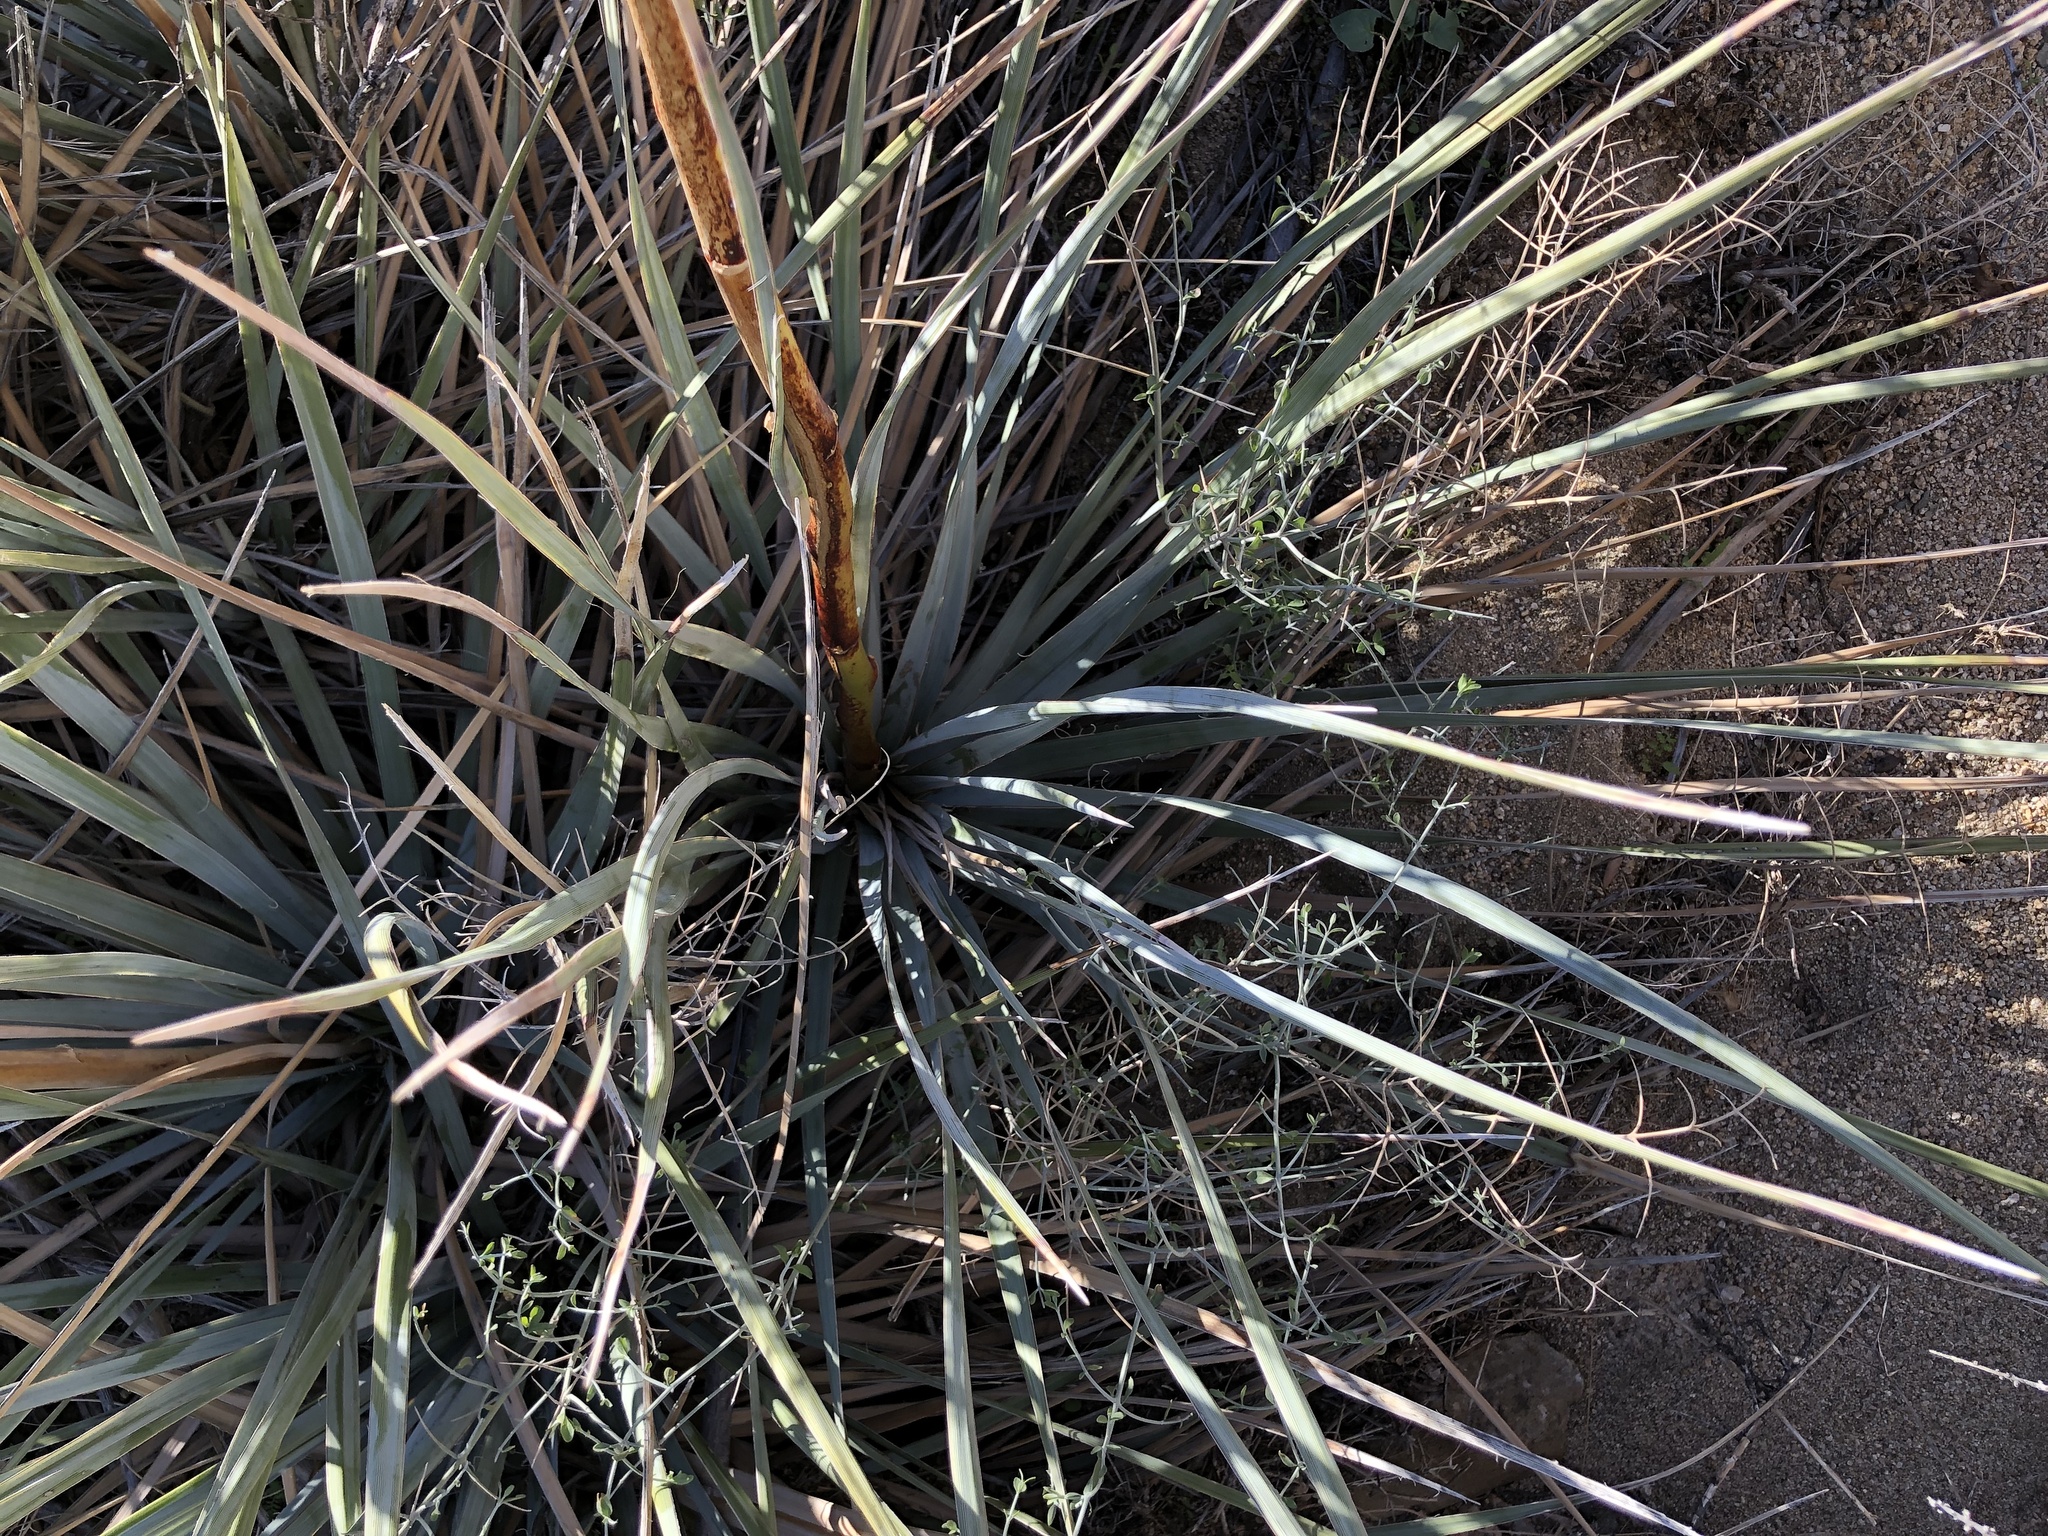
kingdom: Plantae
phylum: Tracheophyta
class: Liliopsida
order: Asparagales
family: Asparagaceae
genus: Nolina
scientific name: Nolina bigelovii
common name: Bigelow bear-grass
